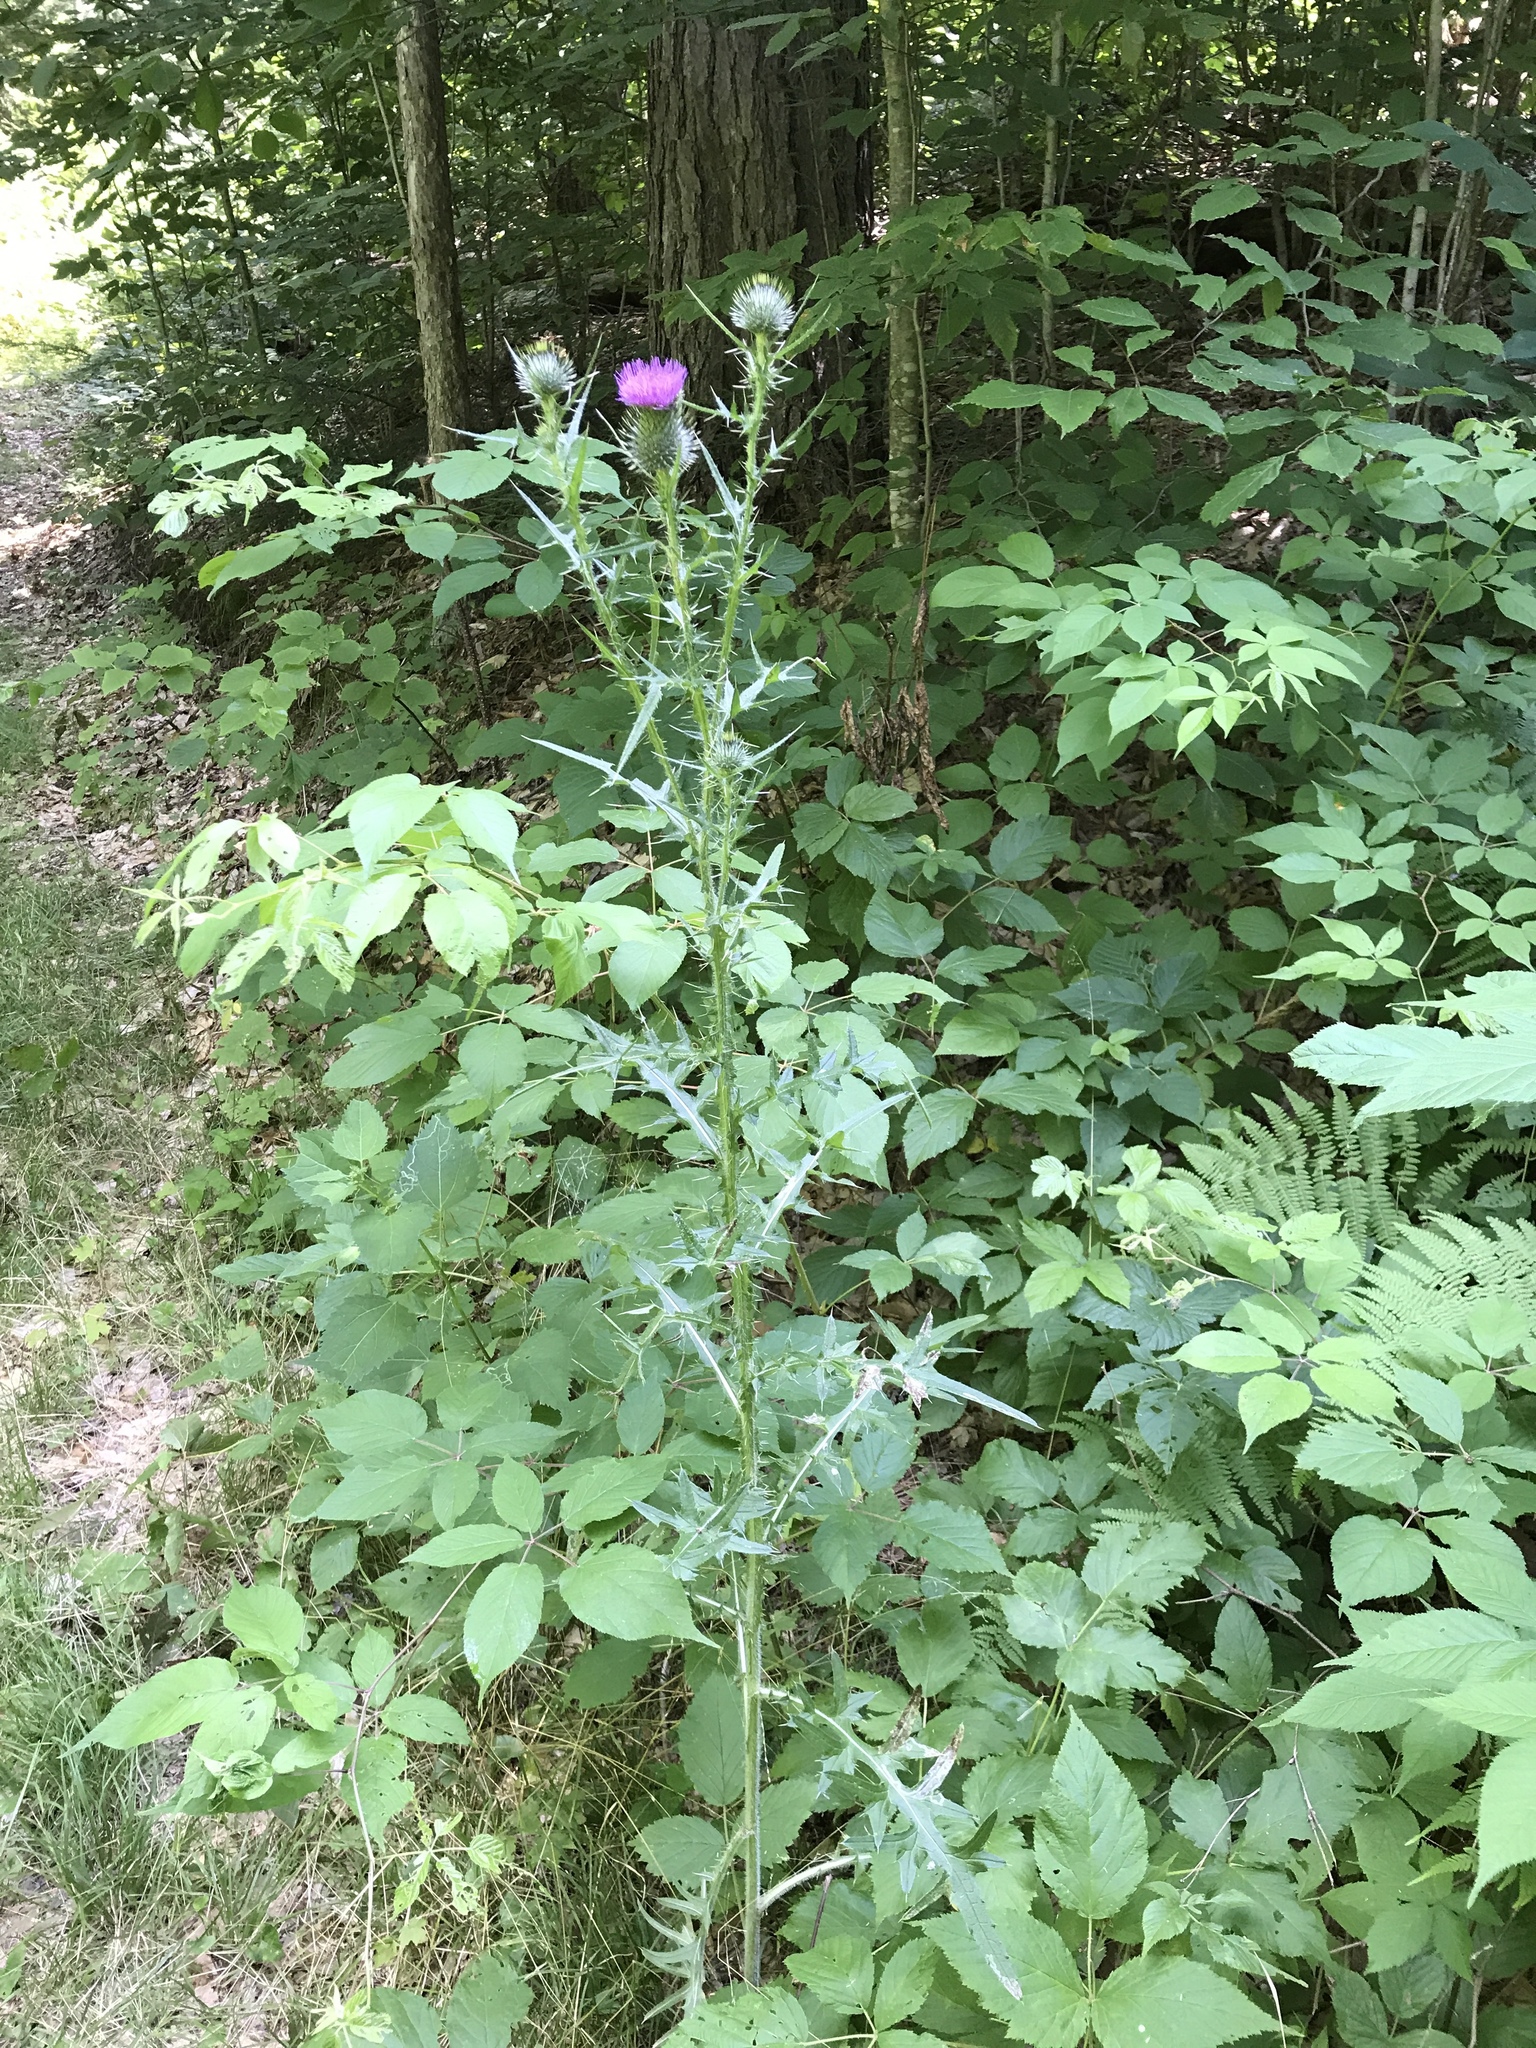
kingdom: Plantae
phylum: Tracheophyta
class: Magnoliopsida
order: Asterales
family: Asteraceae
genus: Cirsium
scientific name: Cirsium vulgare
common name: Bull thistle
